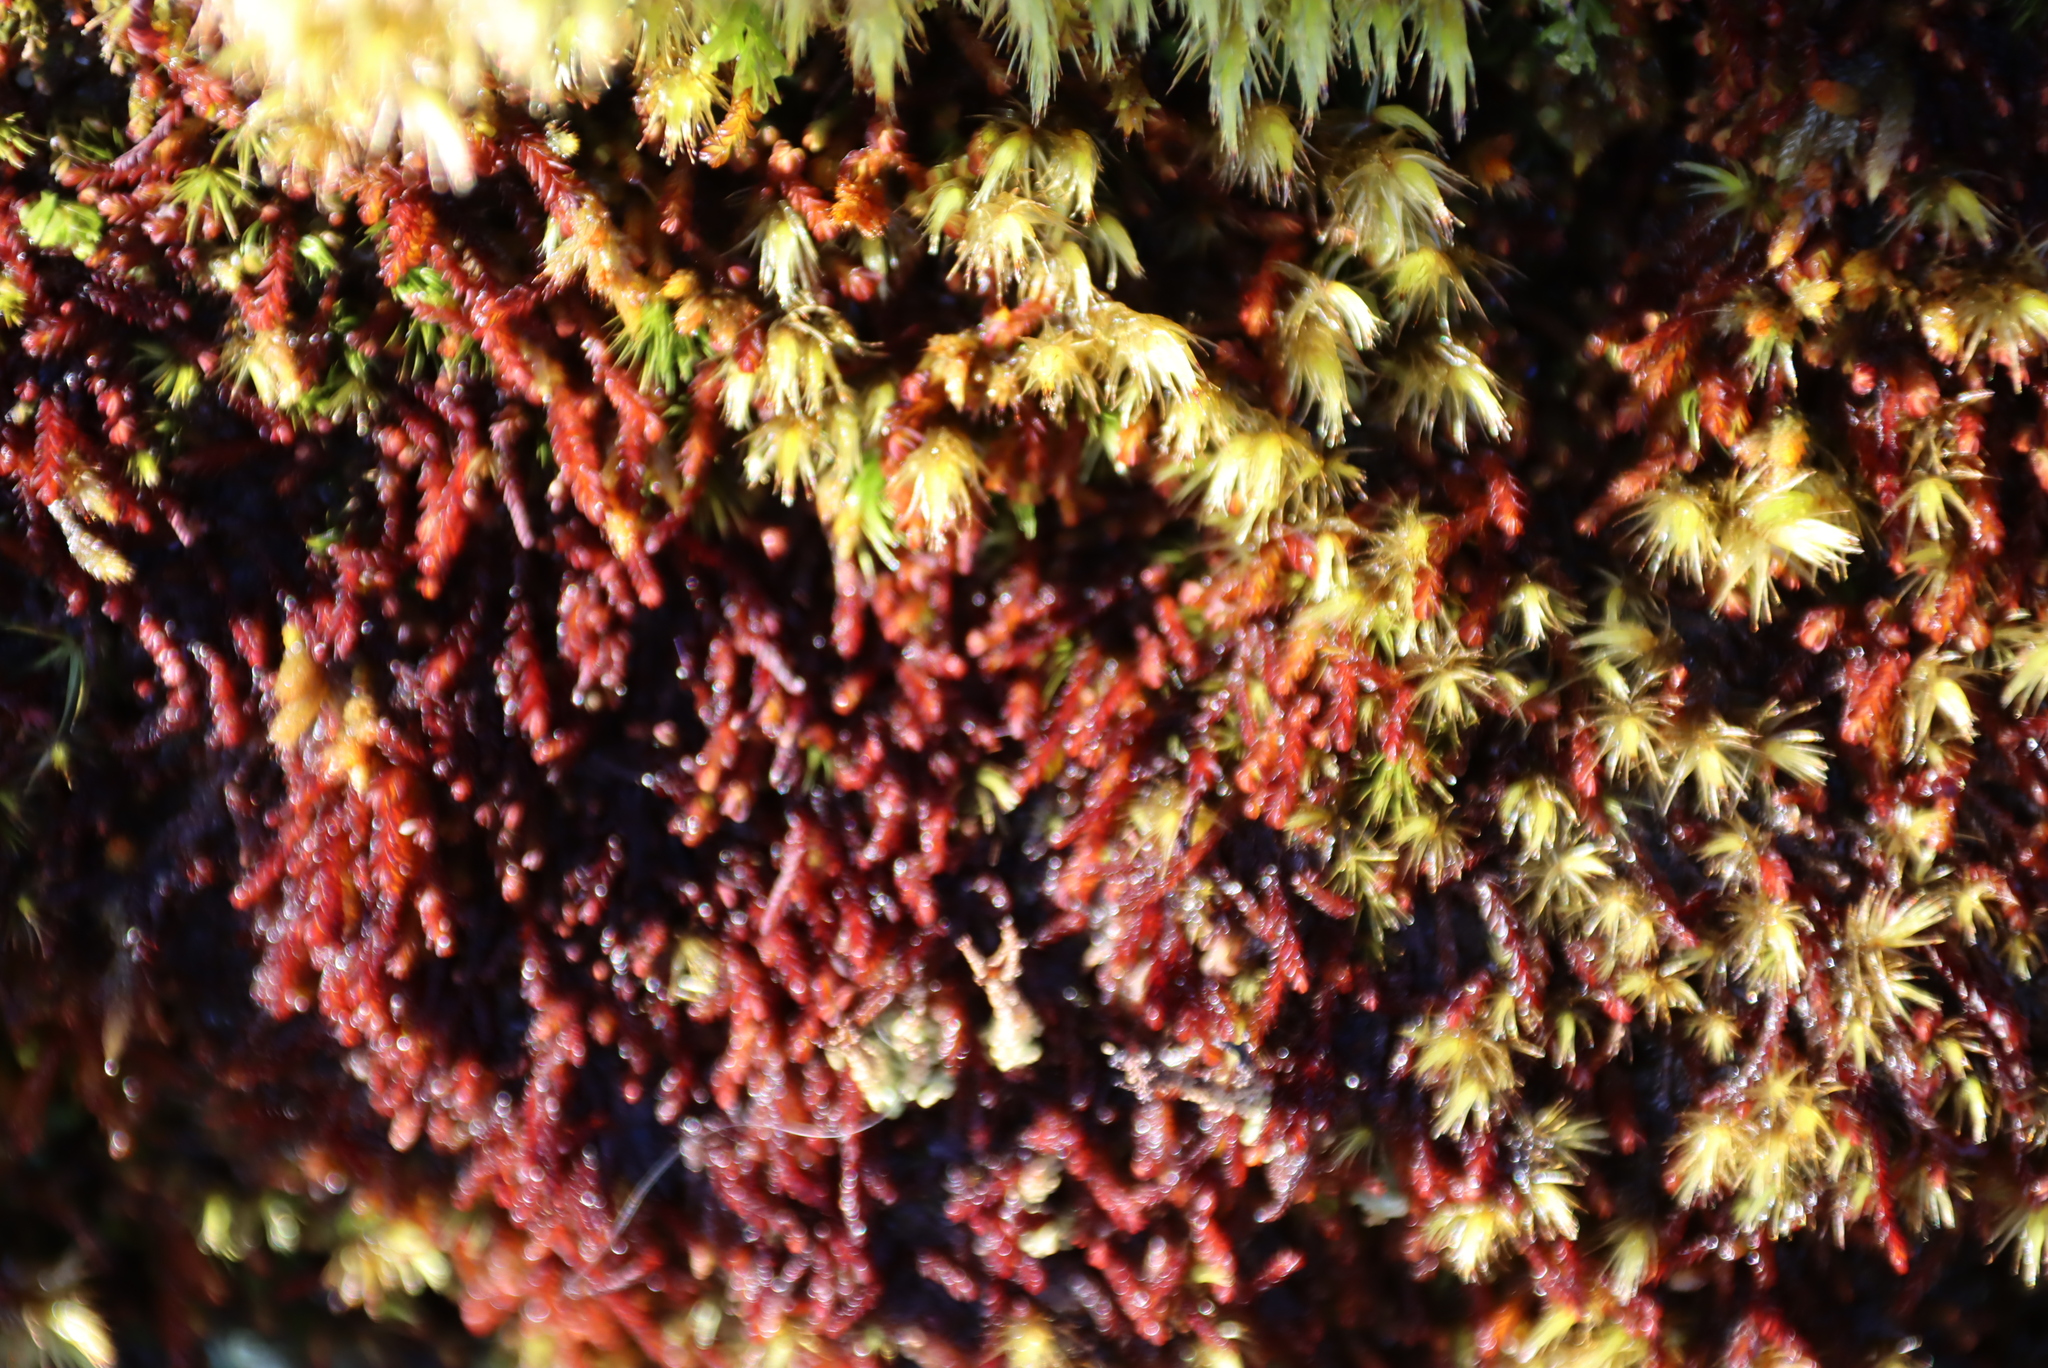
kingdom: Plantae
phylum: Marchantiophyta
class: Jungermanniopsida
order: Jungermanniales
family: Adelanthaceae
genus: Syzygiella
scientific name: Syzygiella colorata
